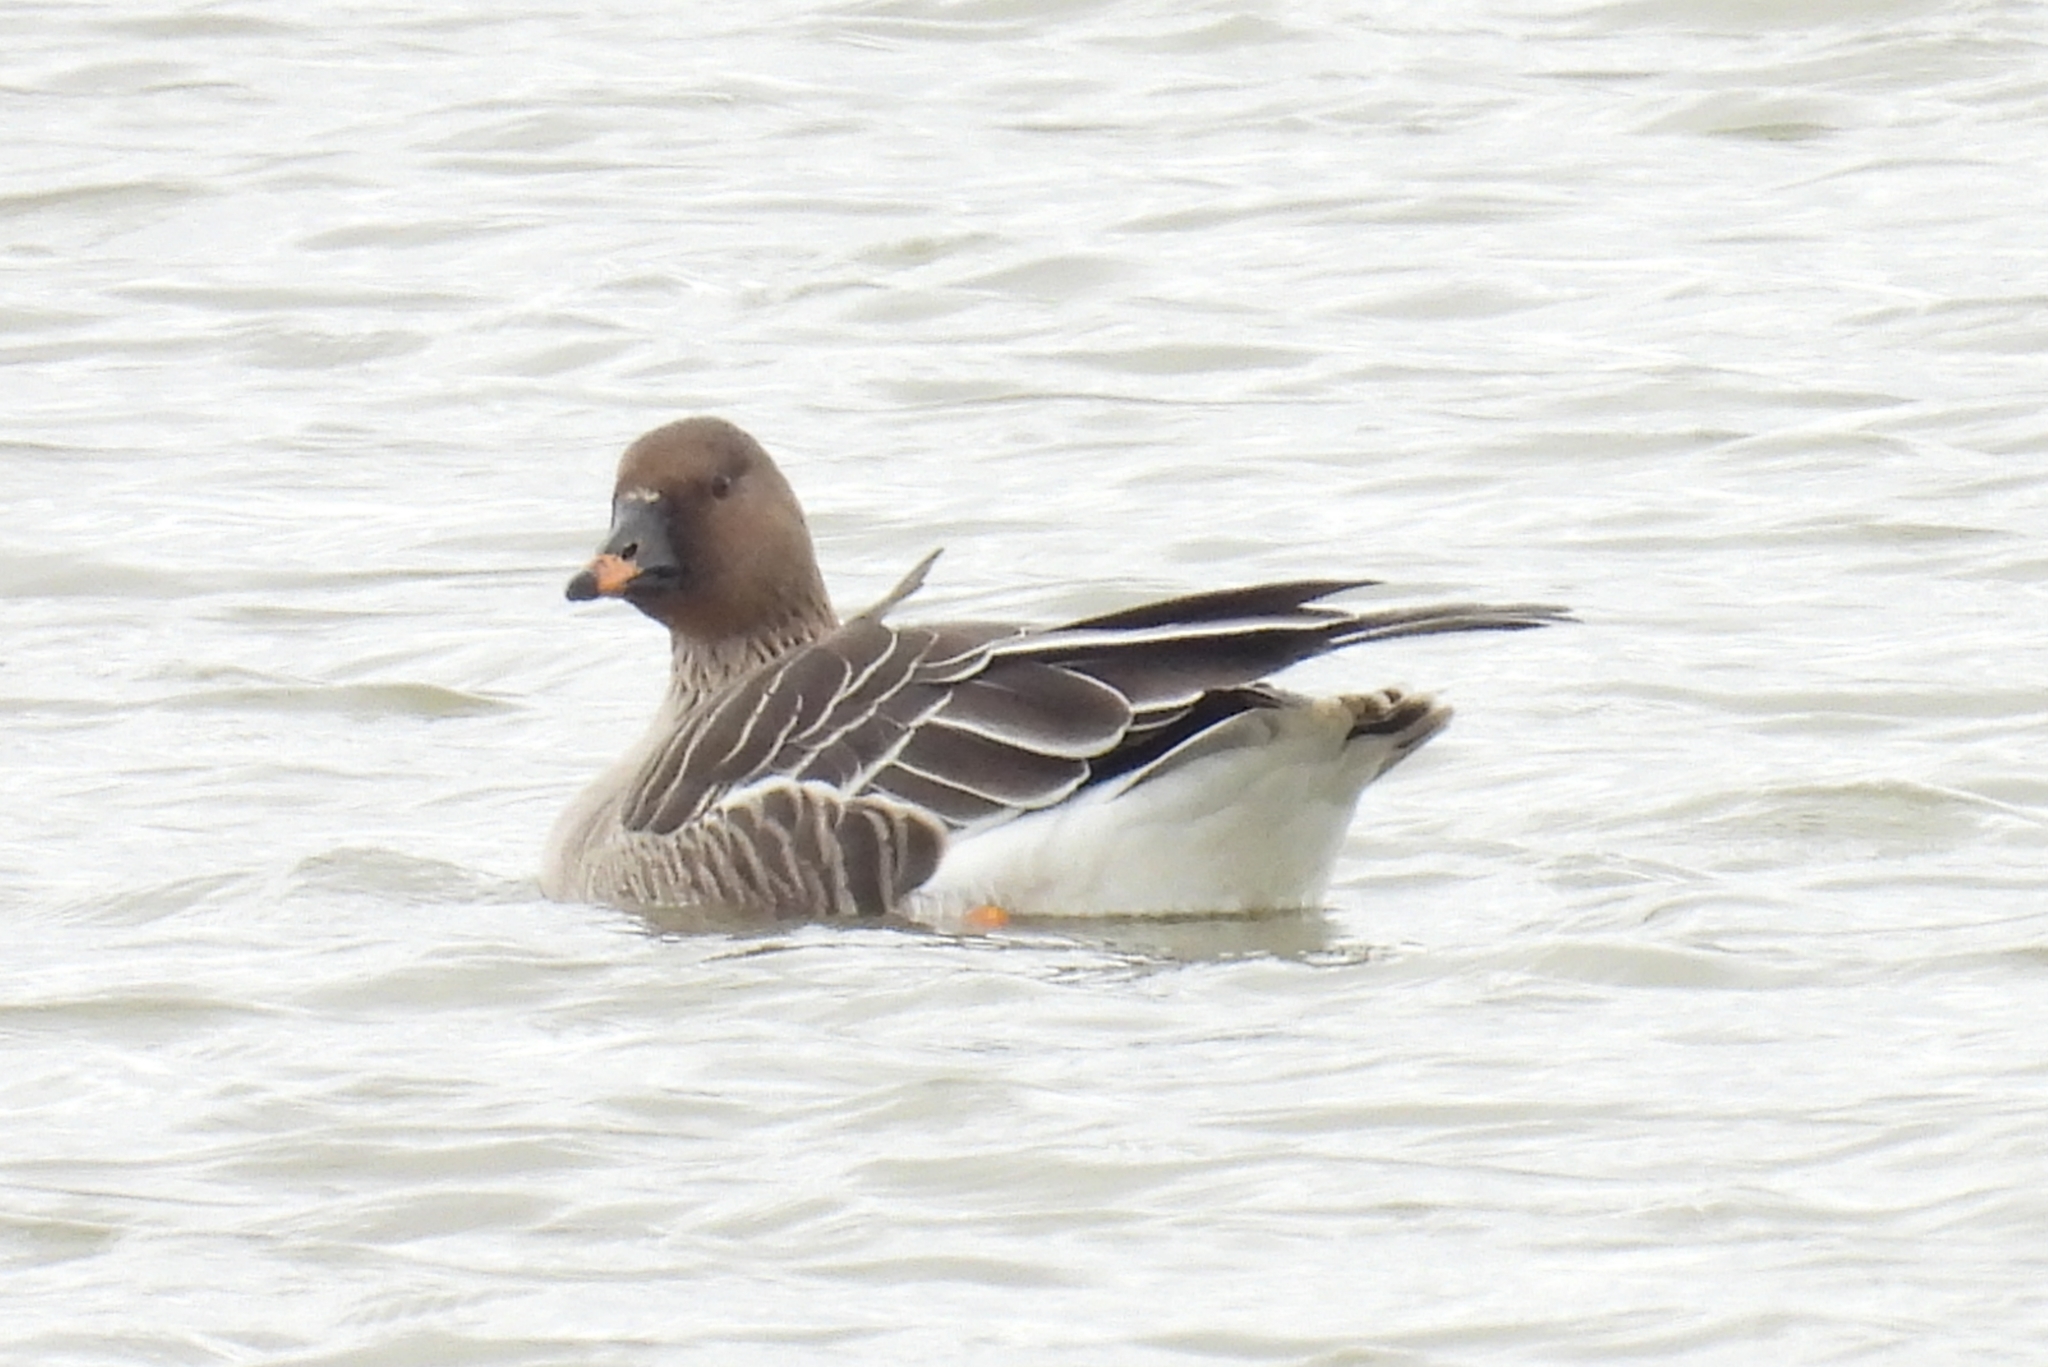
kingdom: Animalia
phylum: Chordata
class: Aves
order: Anseriformes
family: Anatidae
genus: Anser
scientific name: Anser serrirostris
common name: Tundra bean goose
